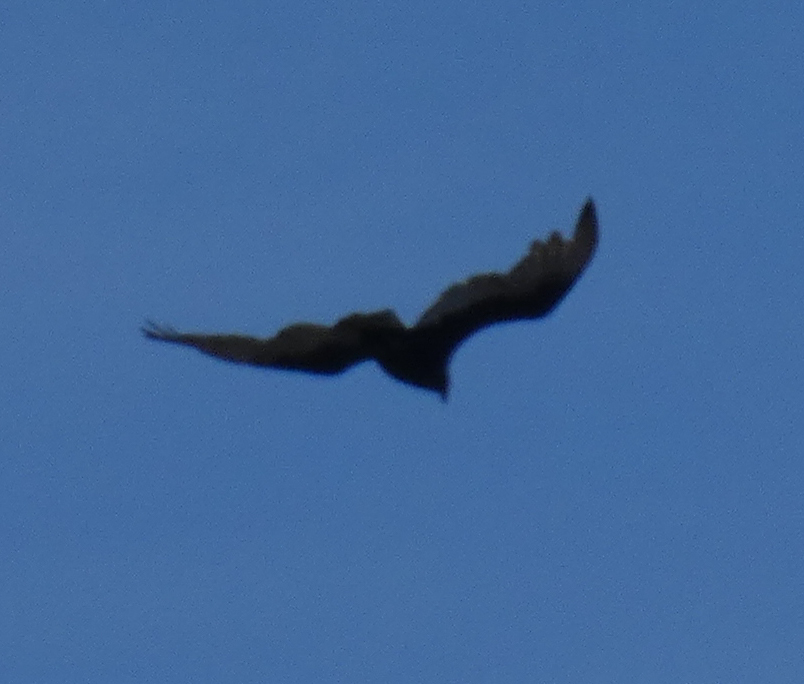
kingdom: Animalia
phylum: Chordata
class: Aves
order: Accipitriformes
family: Cathartidae
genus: Cathartes
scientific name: Cathartes aura
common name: Turkey vulture
